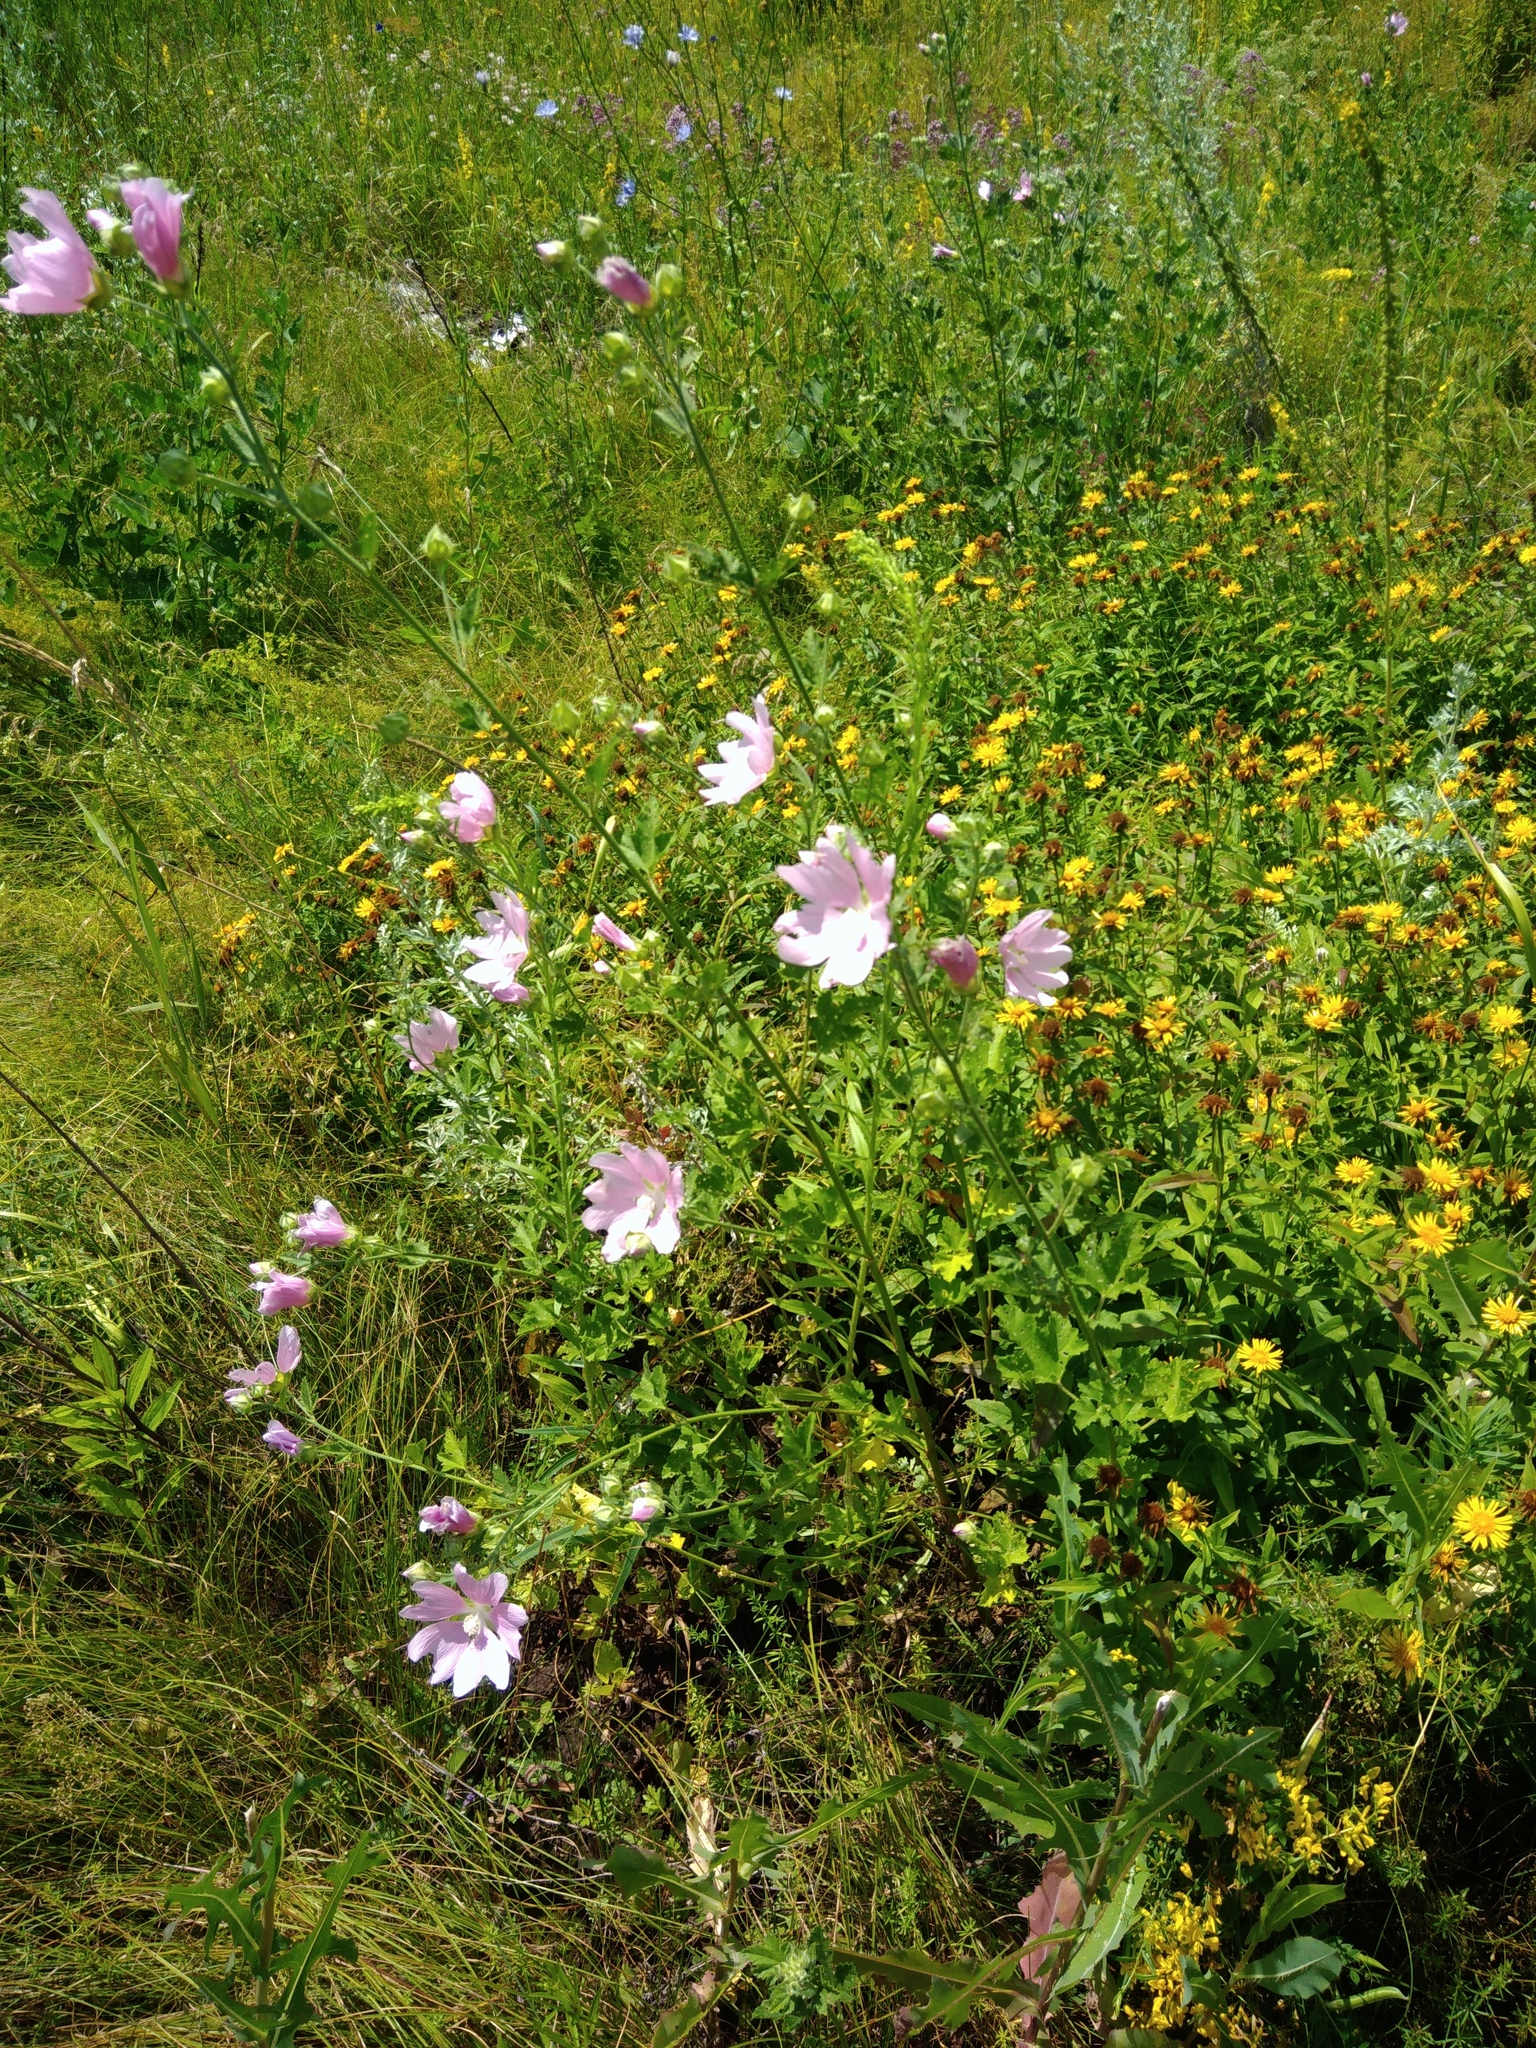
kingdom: Plantae
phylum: Tracheophyta
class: Magnoliopsida
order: Malvales
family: Malvaceae
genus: Malva
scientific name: Malva thuringiaca
